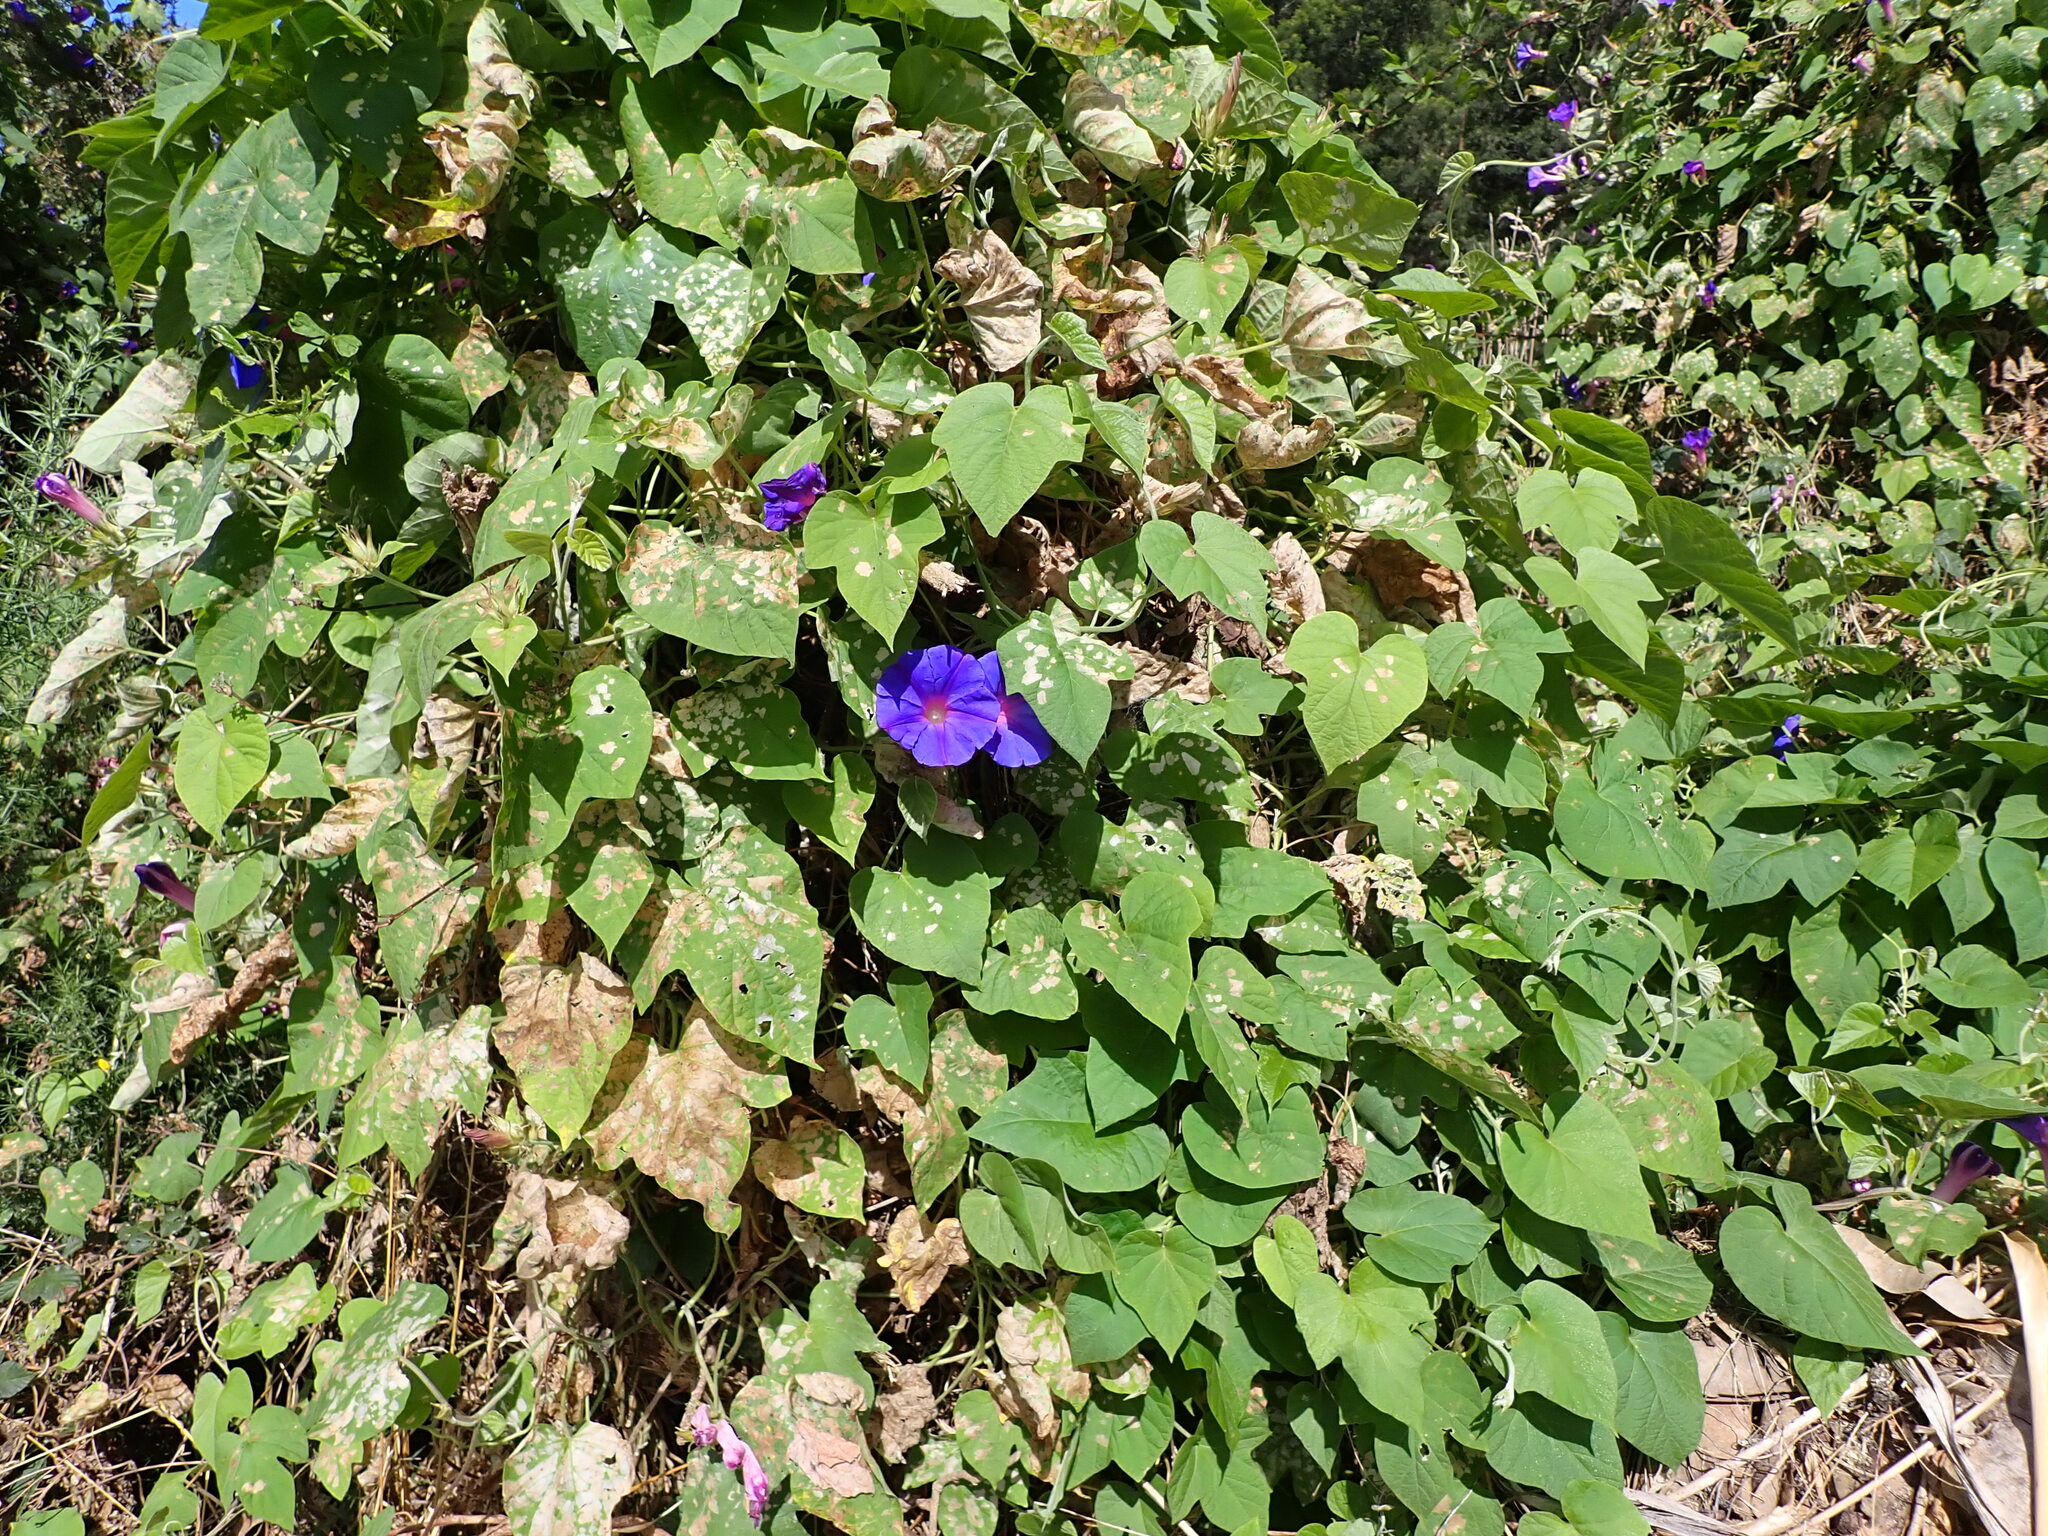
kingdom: Plantae
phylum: Tracheophyta
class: Magnoliopsida
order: Solanales
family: Convolvulaceae
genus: Ipomoea
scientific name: Ipomoea indica
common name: Blue dawnflower
